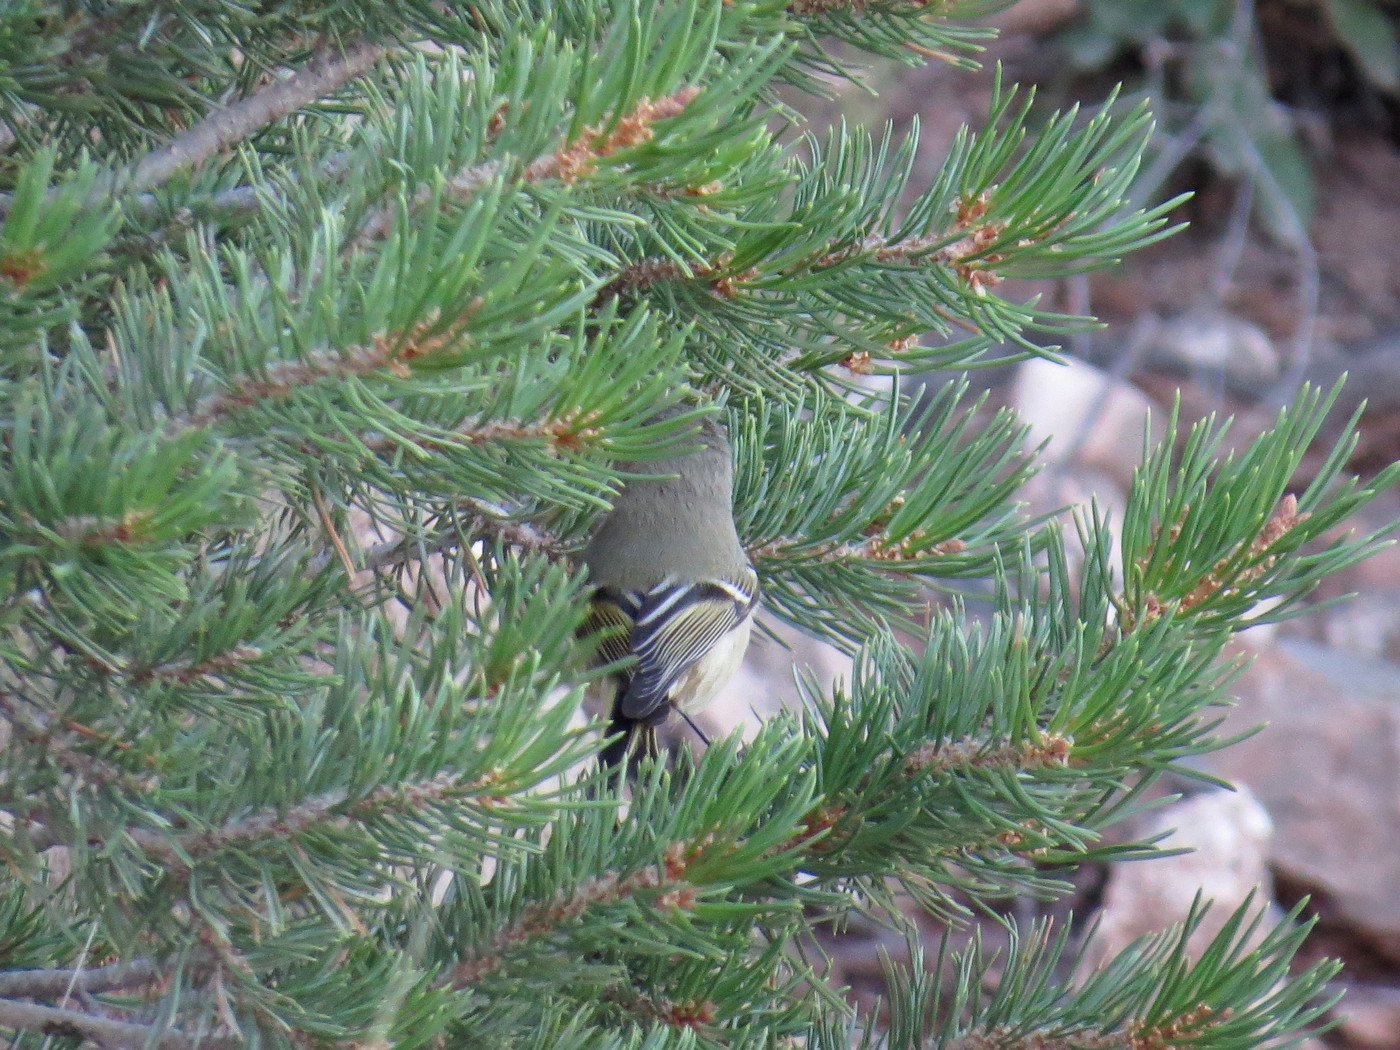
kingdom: Animalia
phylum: Chordata
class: Aves
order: Passeriformes
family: Regulidae
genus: Regulus
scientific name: Regulus calendula
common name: Ruby-crowned kinglet
